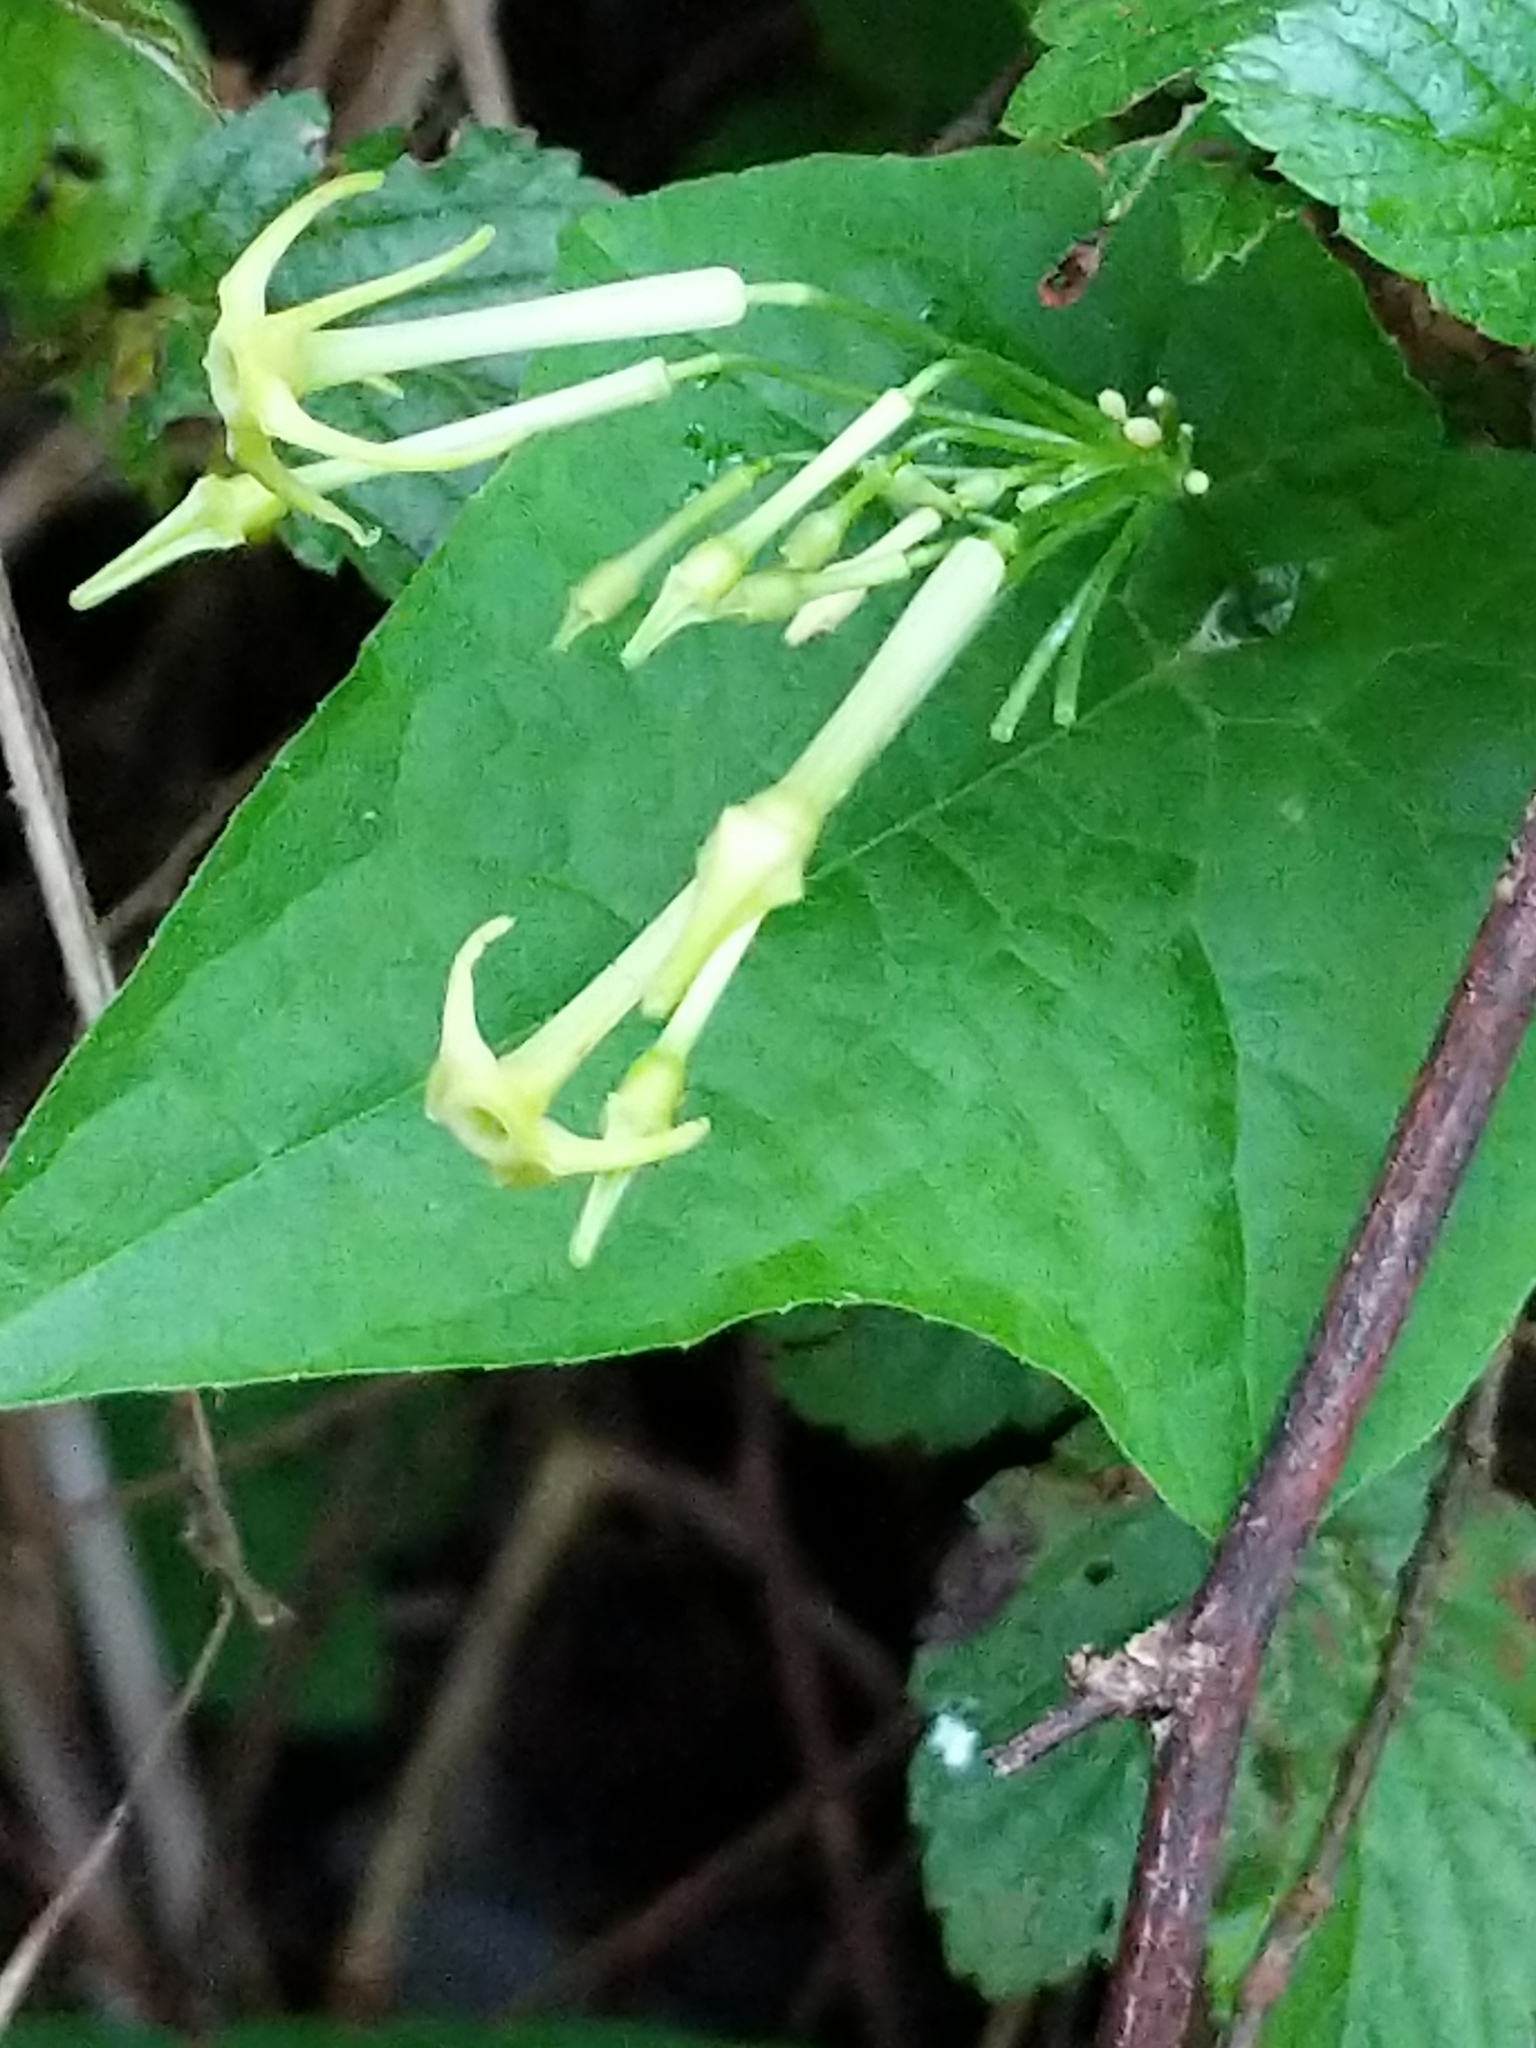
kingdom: Plantae
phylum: Tracheophyta
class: Magnoliopsida
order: Cucurbitales
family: Cucurbitaceae
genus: Cyclanthera
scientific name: Cyclanthera carthagenensis
